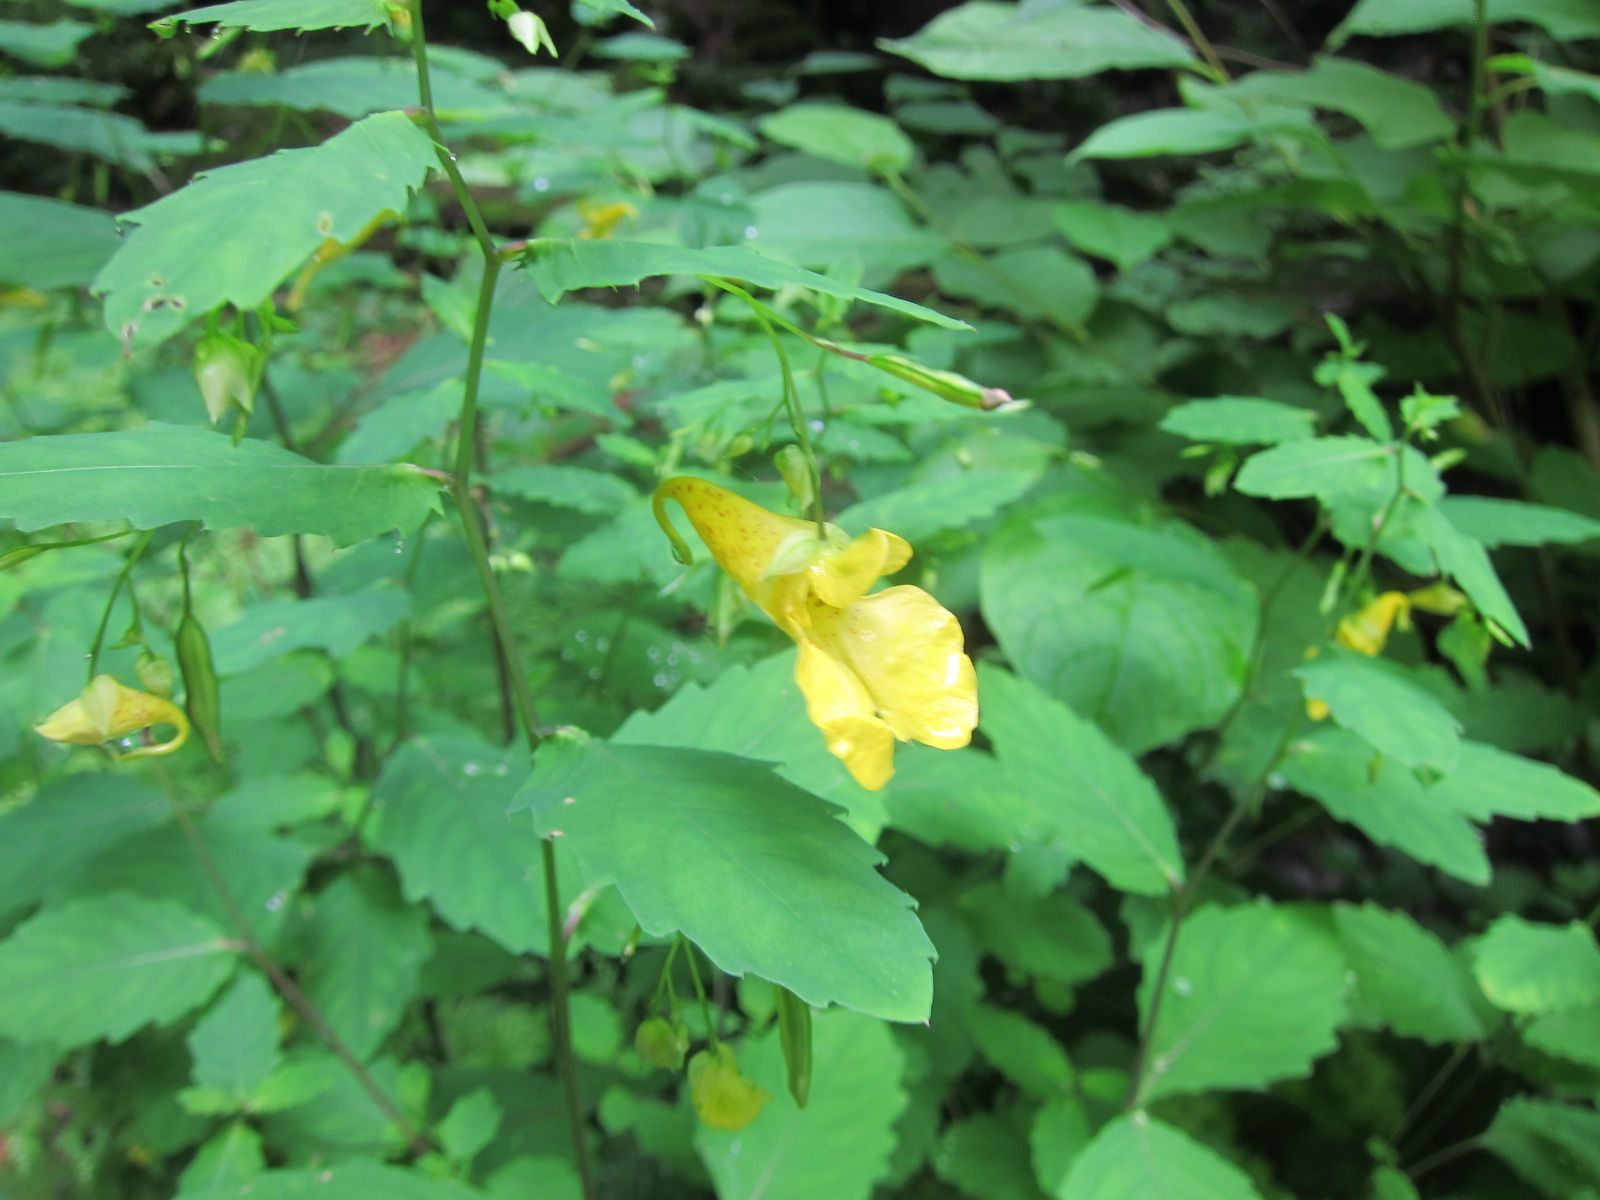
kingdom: Plantae
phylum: Tracheophyta
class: Magnoliopsida
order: Ericales
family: Balsaminaceae
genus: Impatiens
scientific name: Impatiens noli-tangere
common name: Touch-me-not balsam
